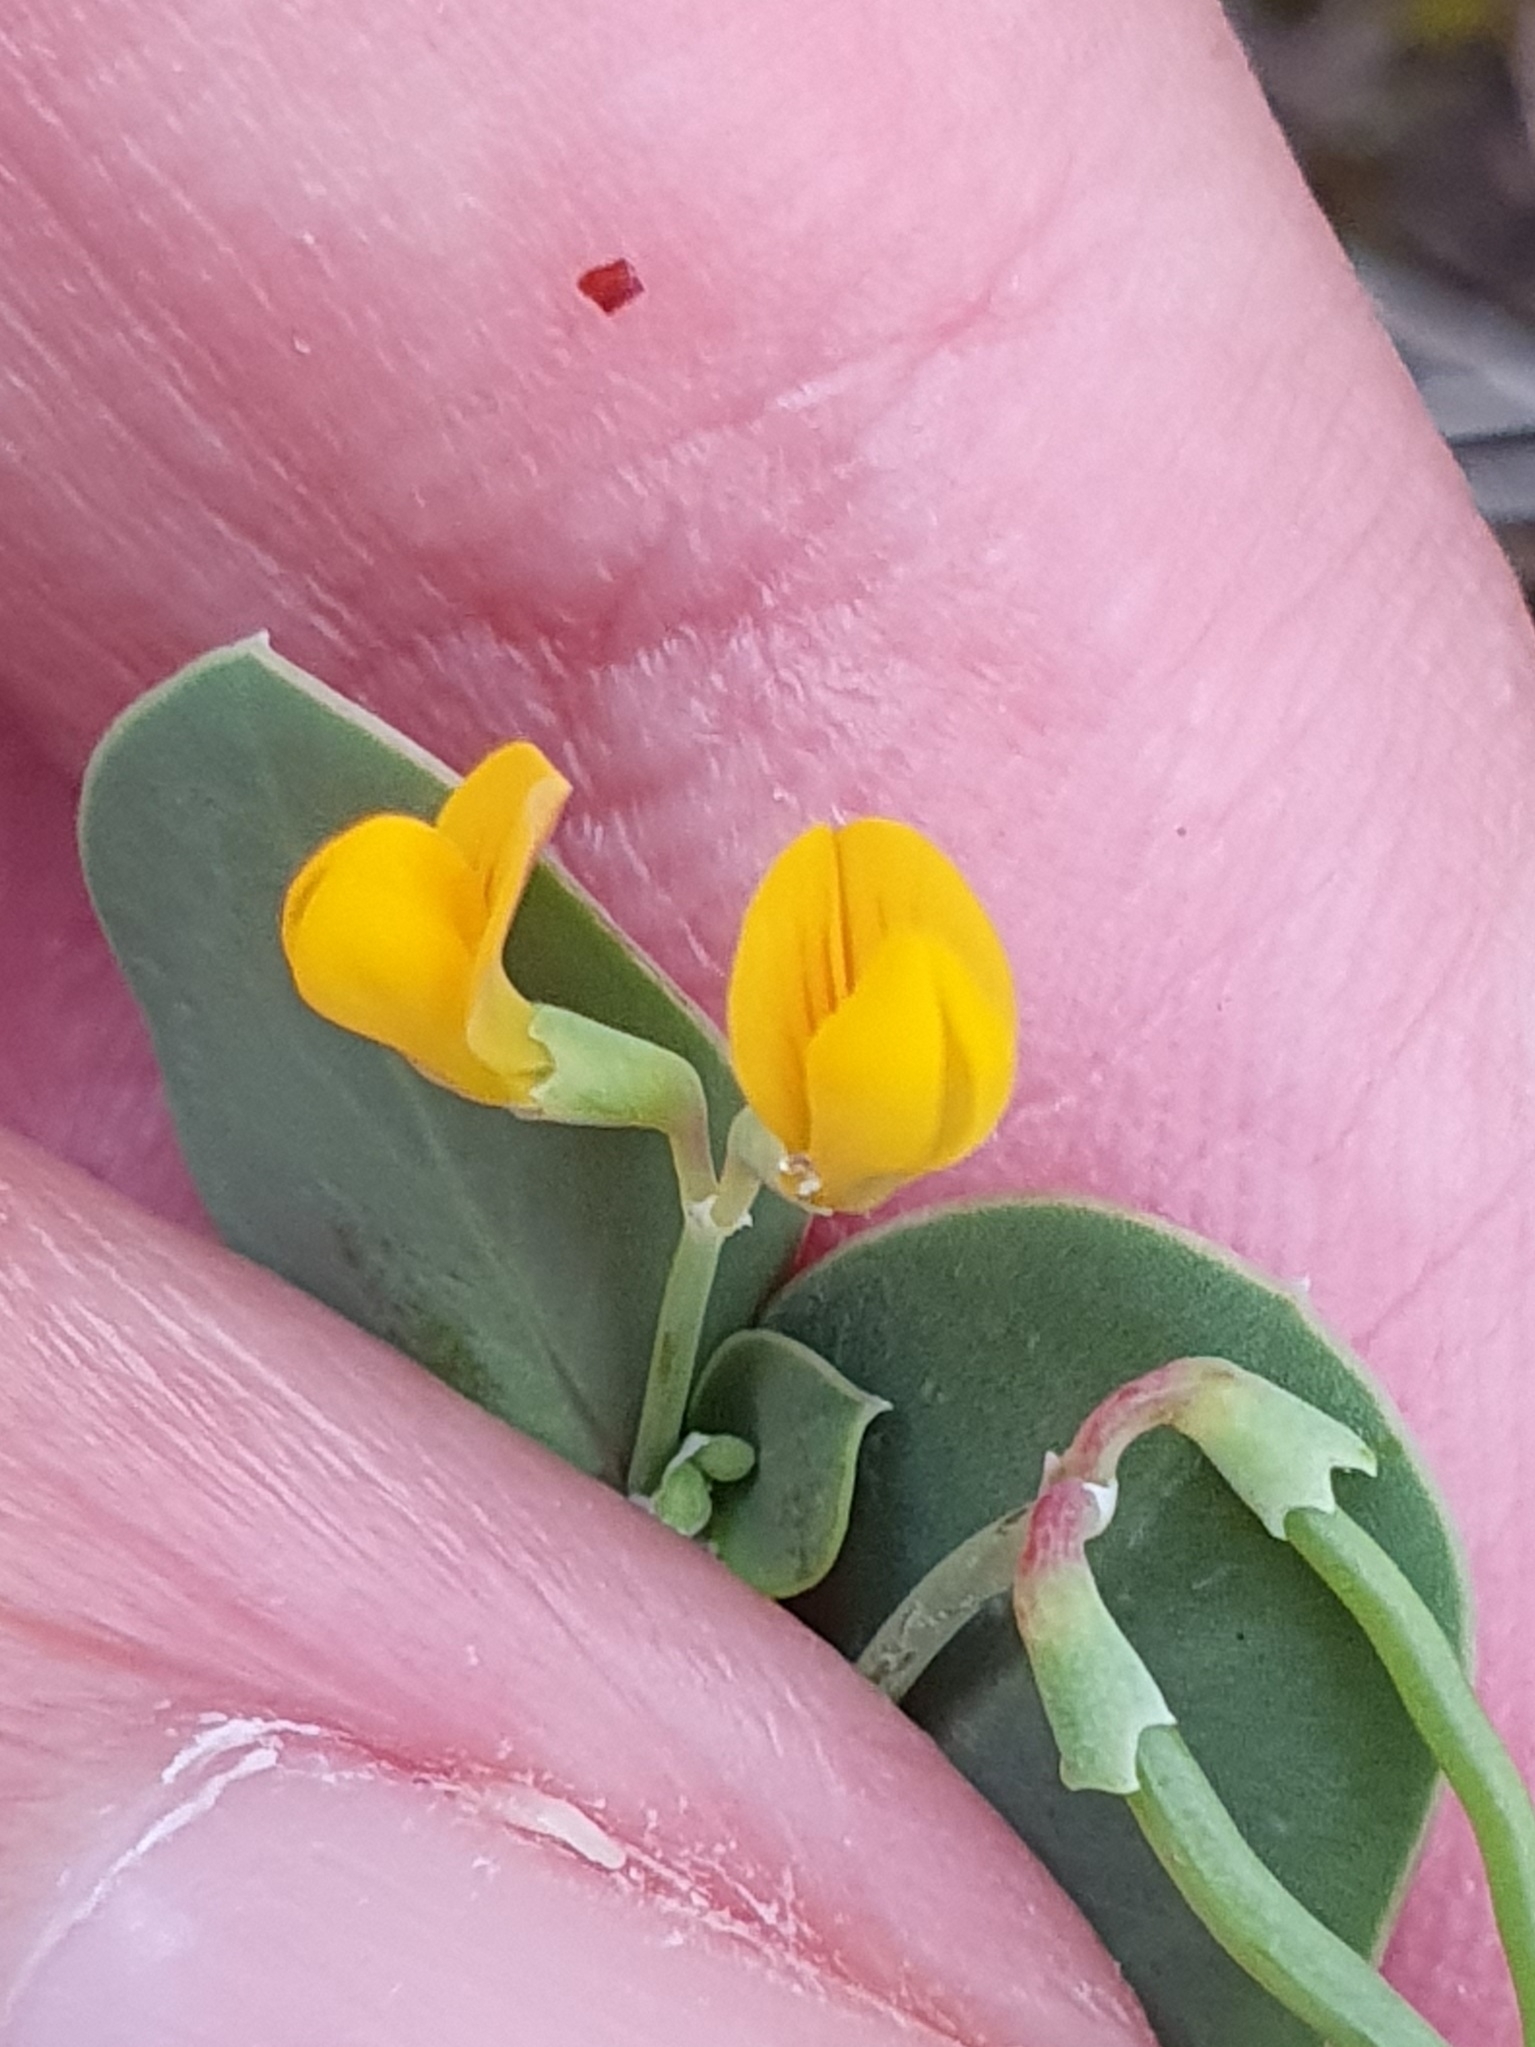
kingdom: Plantae
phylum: Tracheophyta
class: Magnoliopsida
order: Fabales
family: Fabaceae
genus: Coronilla
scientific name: Coronilla scorpioides
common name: Annual scorpion-vetch
